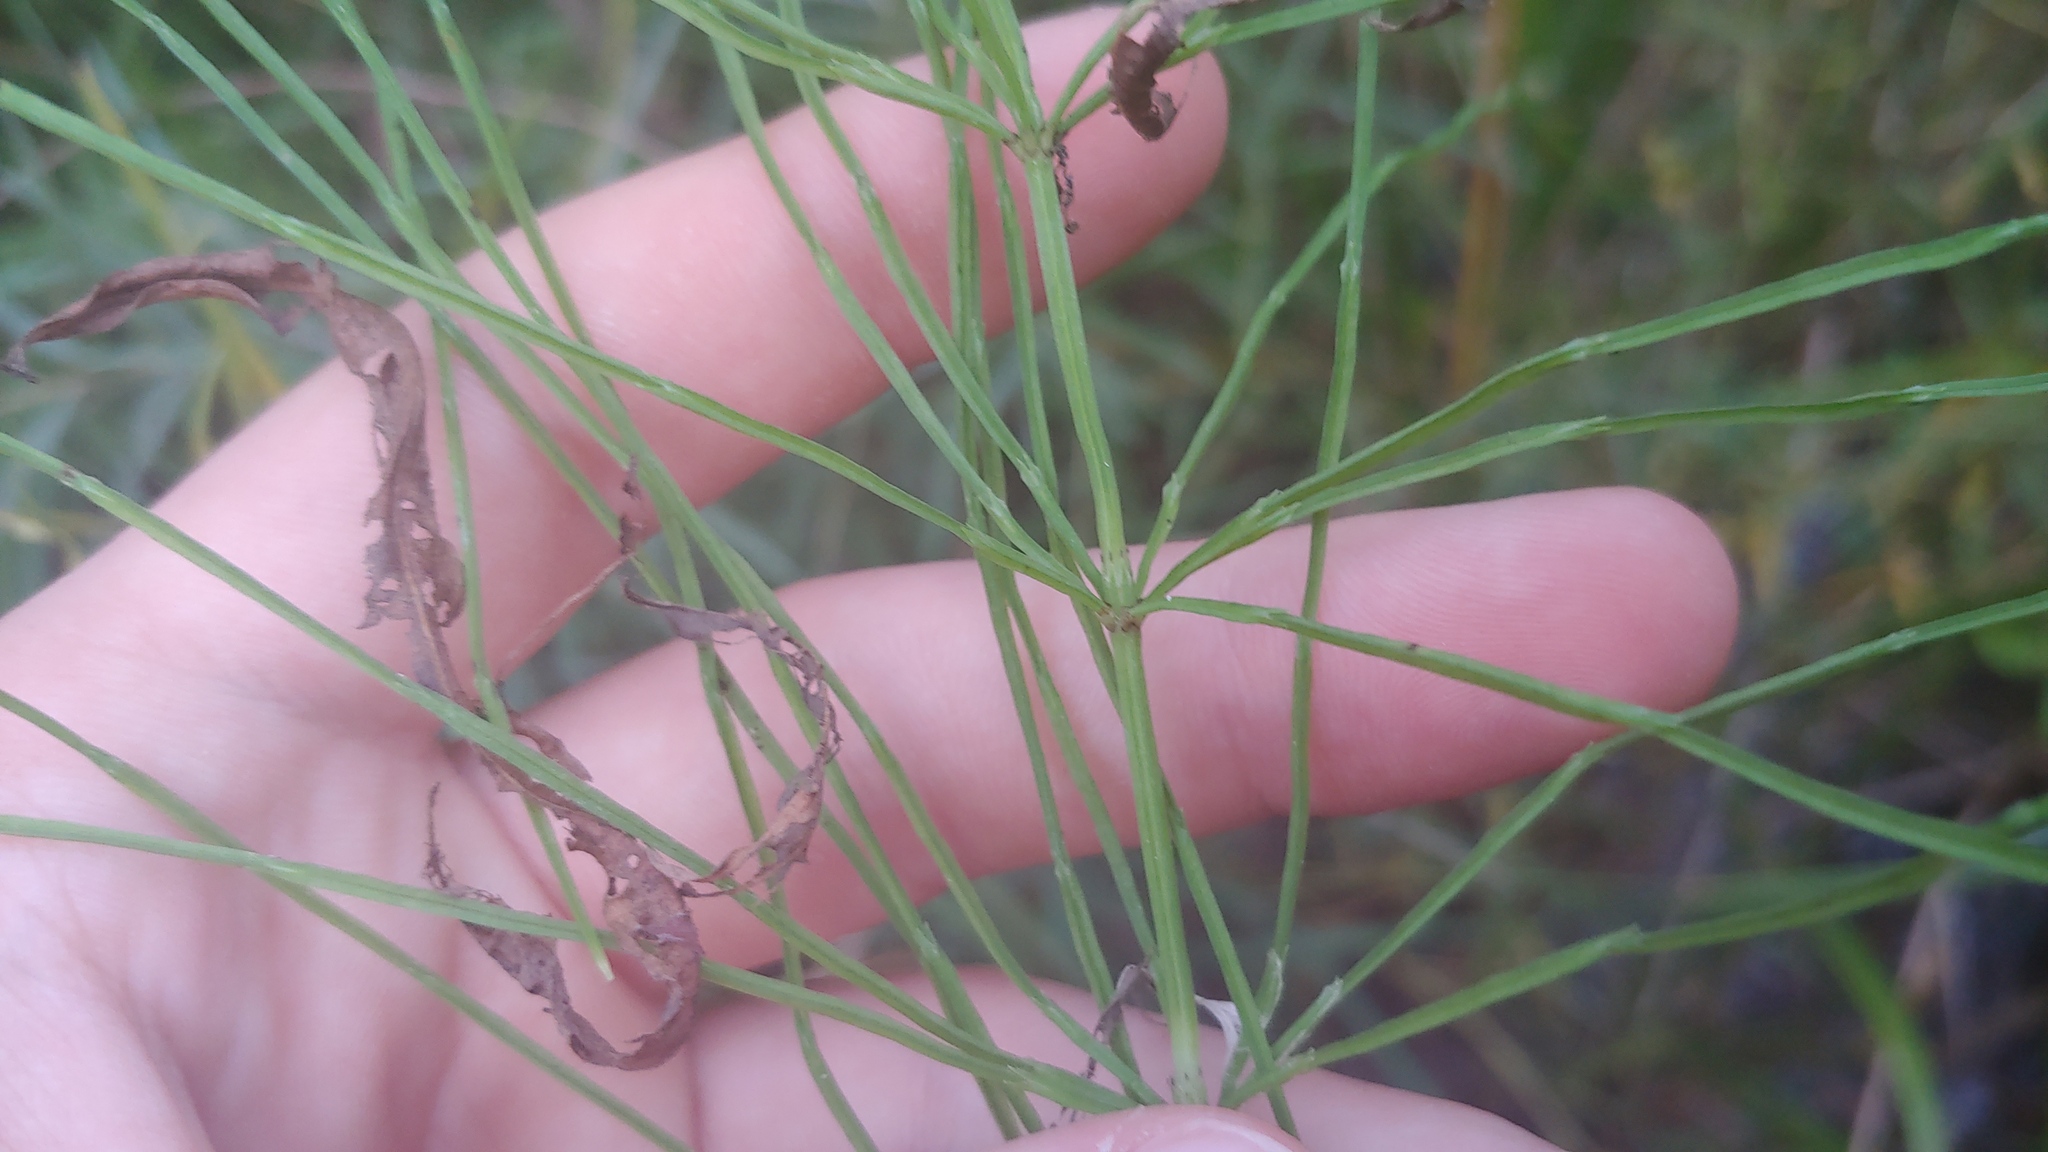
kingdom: Plantae
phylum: Tracheophyta
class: Polypodiopsida
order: Equisetales
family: Equisetaceae
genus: Equisetum
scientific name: Equisetum arvense
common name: Field horsetail
